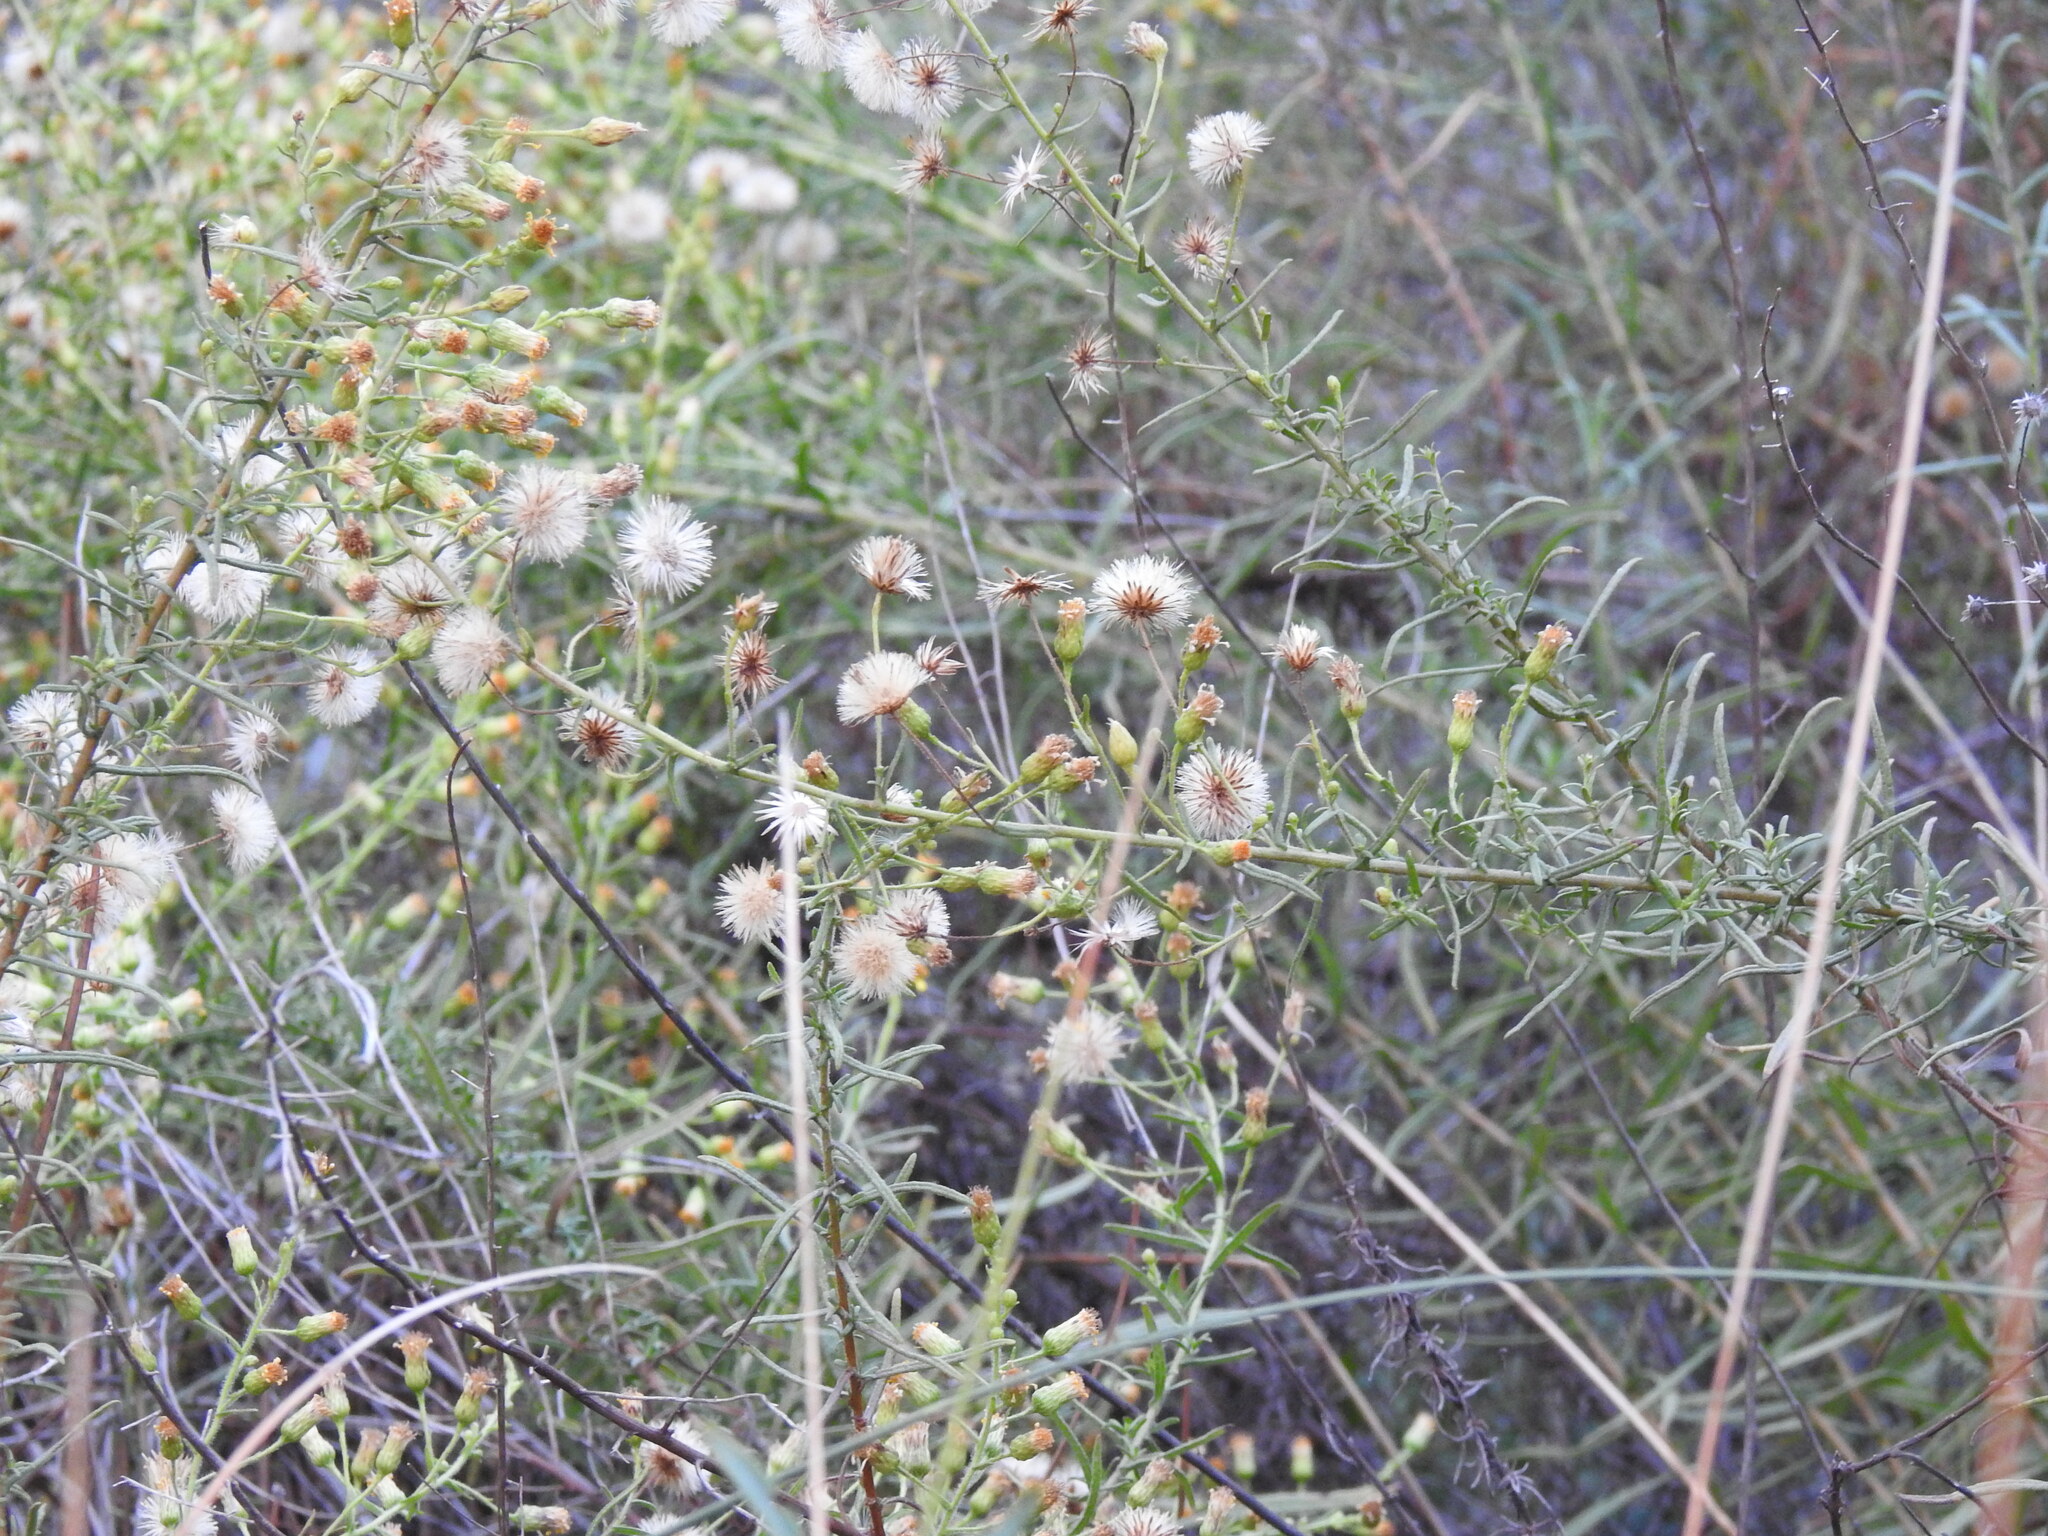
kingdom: Plantae
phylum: Tracheophyta
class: Magnoliopsida
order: Asterales
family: Asteraceae
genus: Dittrichia
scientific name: Dittrichia viscosa
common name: Woody fleabane
